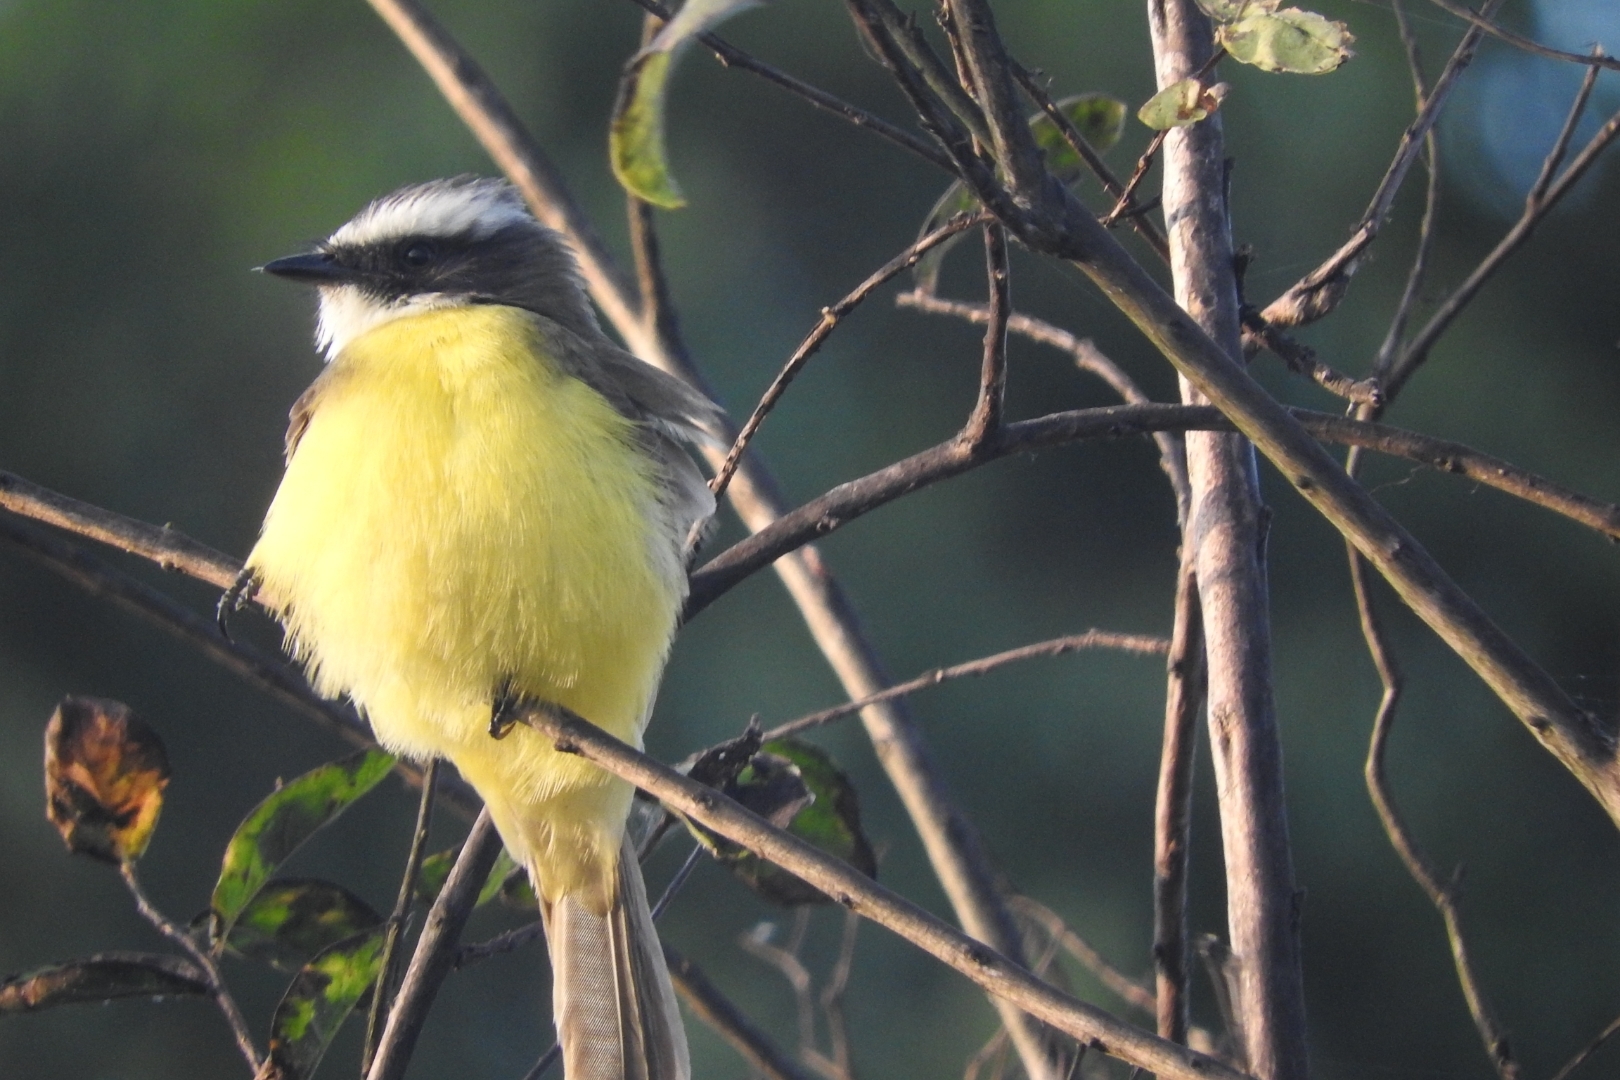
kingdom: Animalia
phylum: Chordata
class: Aves
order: Passeriformes
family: Tyrannidae
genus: Myiozetetes
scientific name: Myiozetetes similis
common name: Social flycatcher
